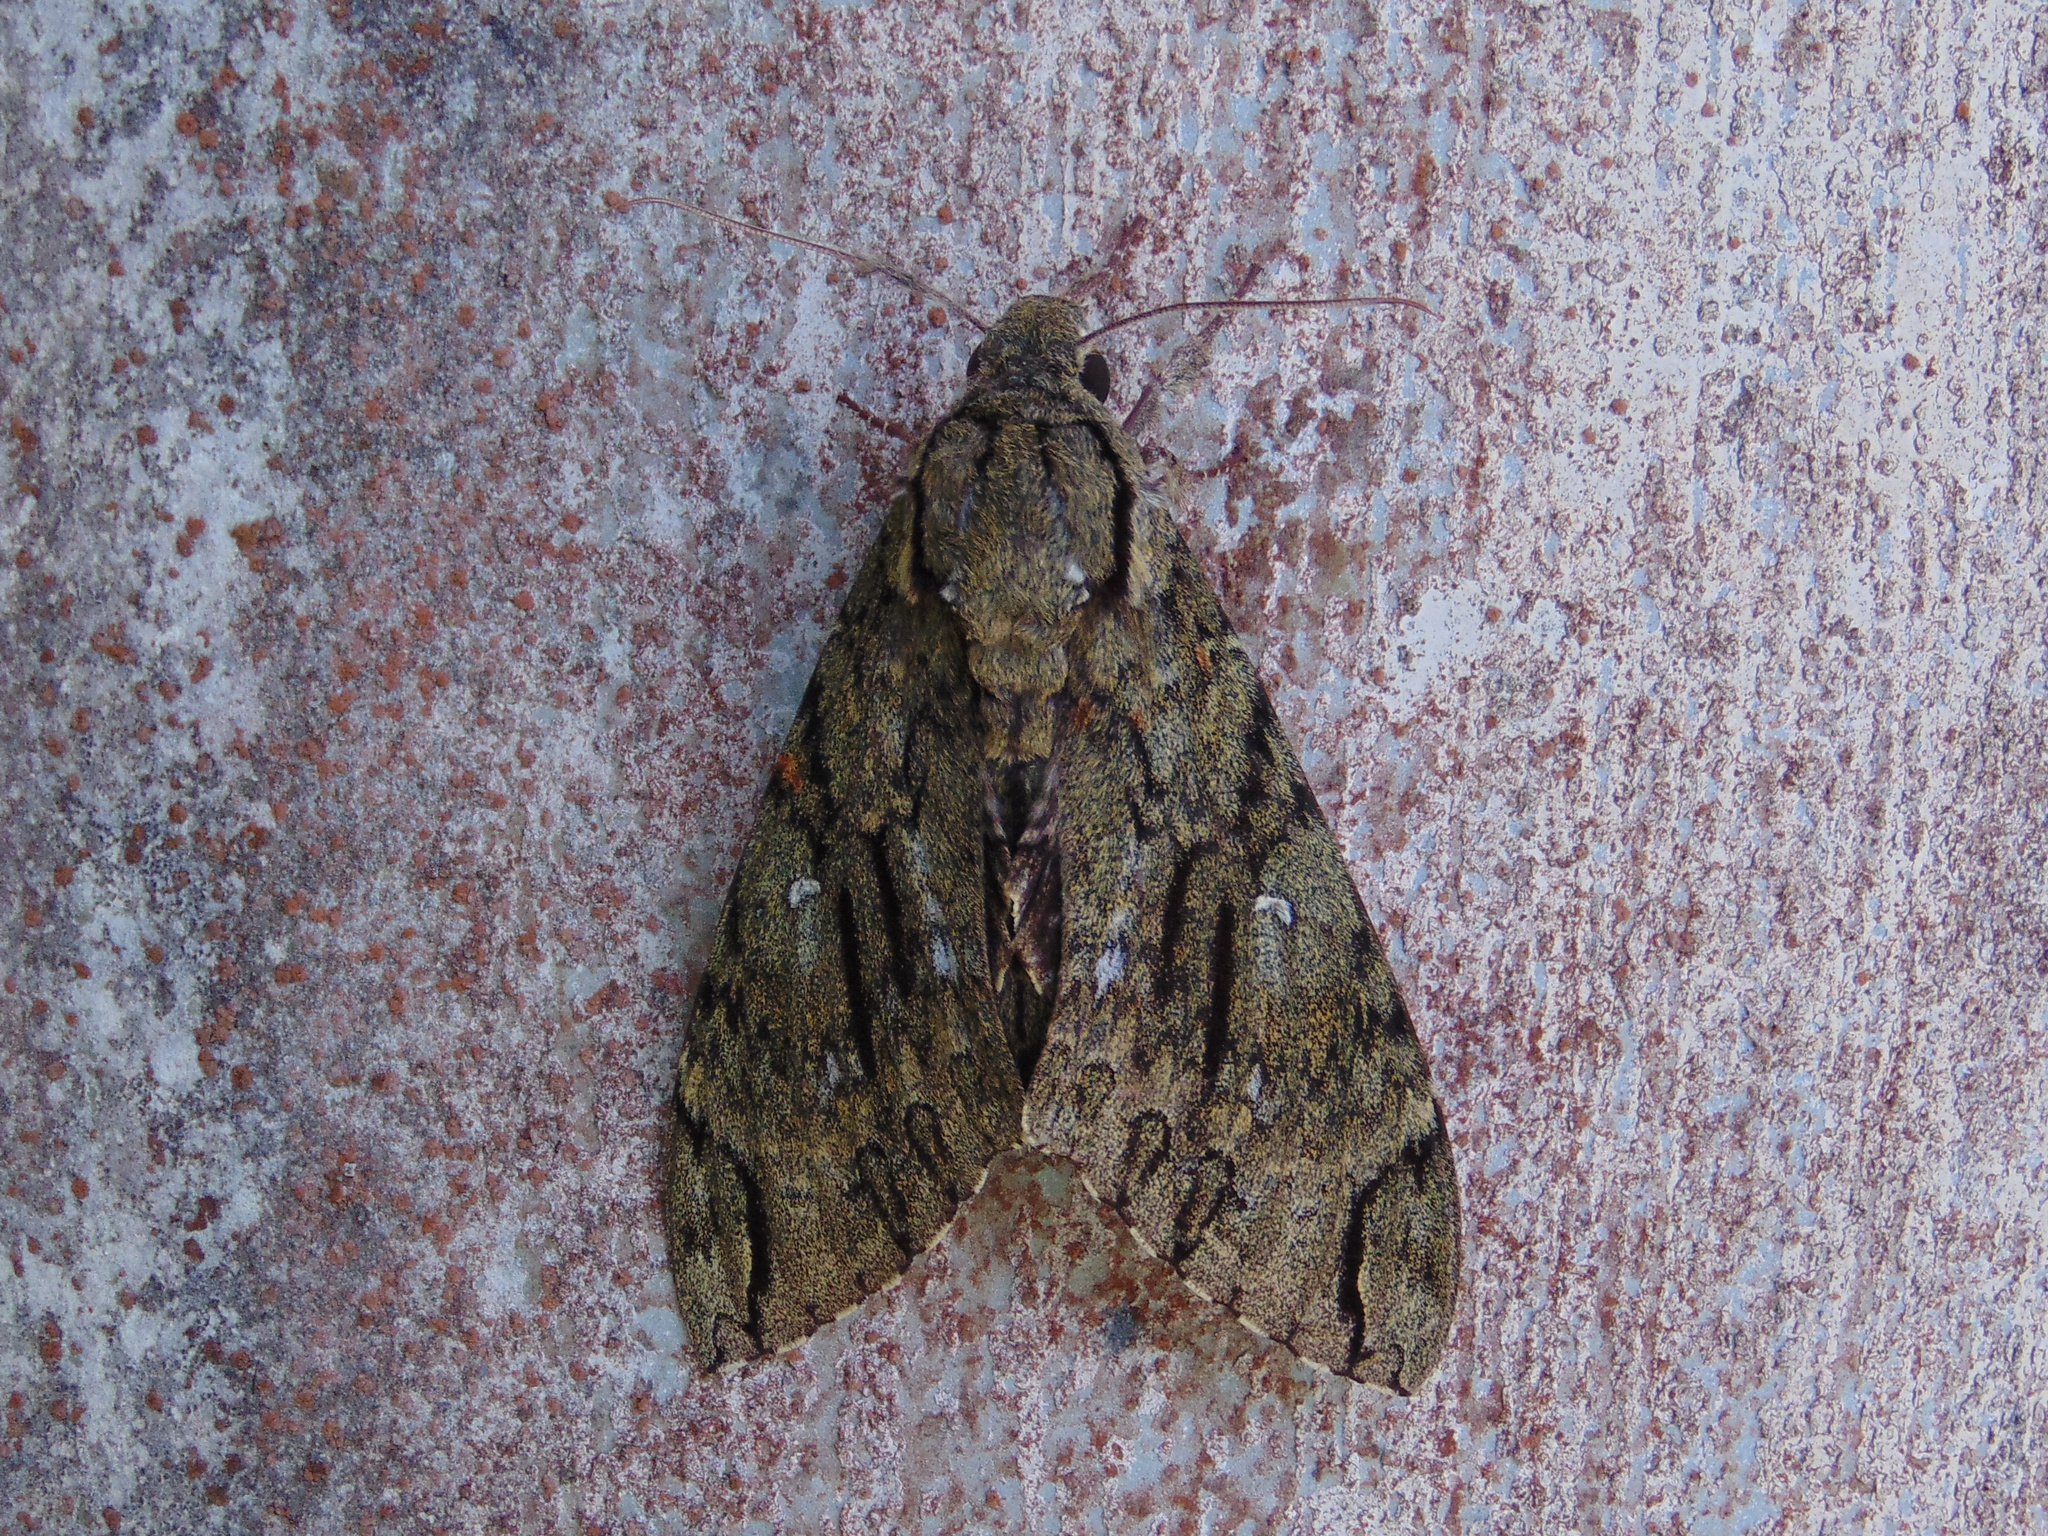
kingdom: Animalia
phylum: Arthropoda
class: Insecta
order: Lepidoptera
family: Sphingidae
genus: Cocytius
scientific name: Cocytius lucifer
